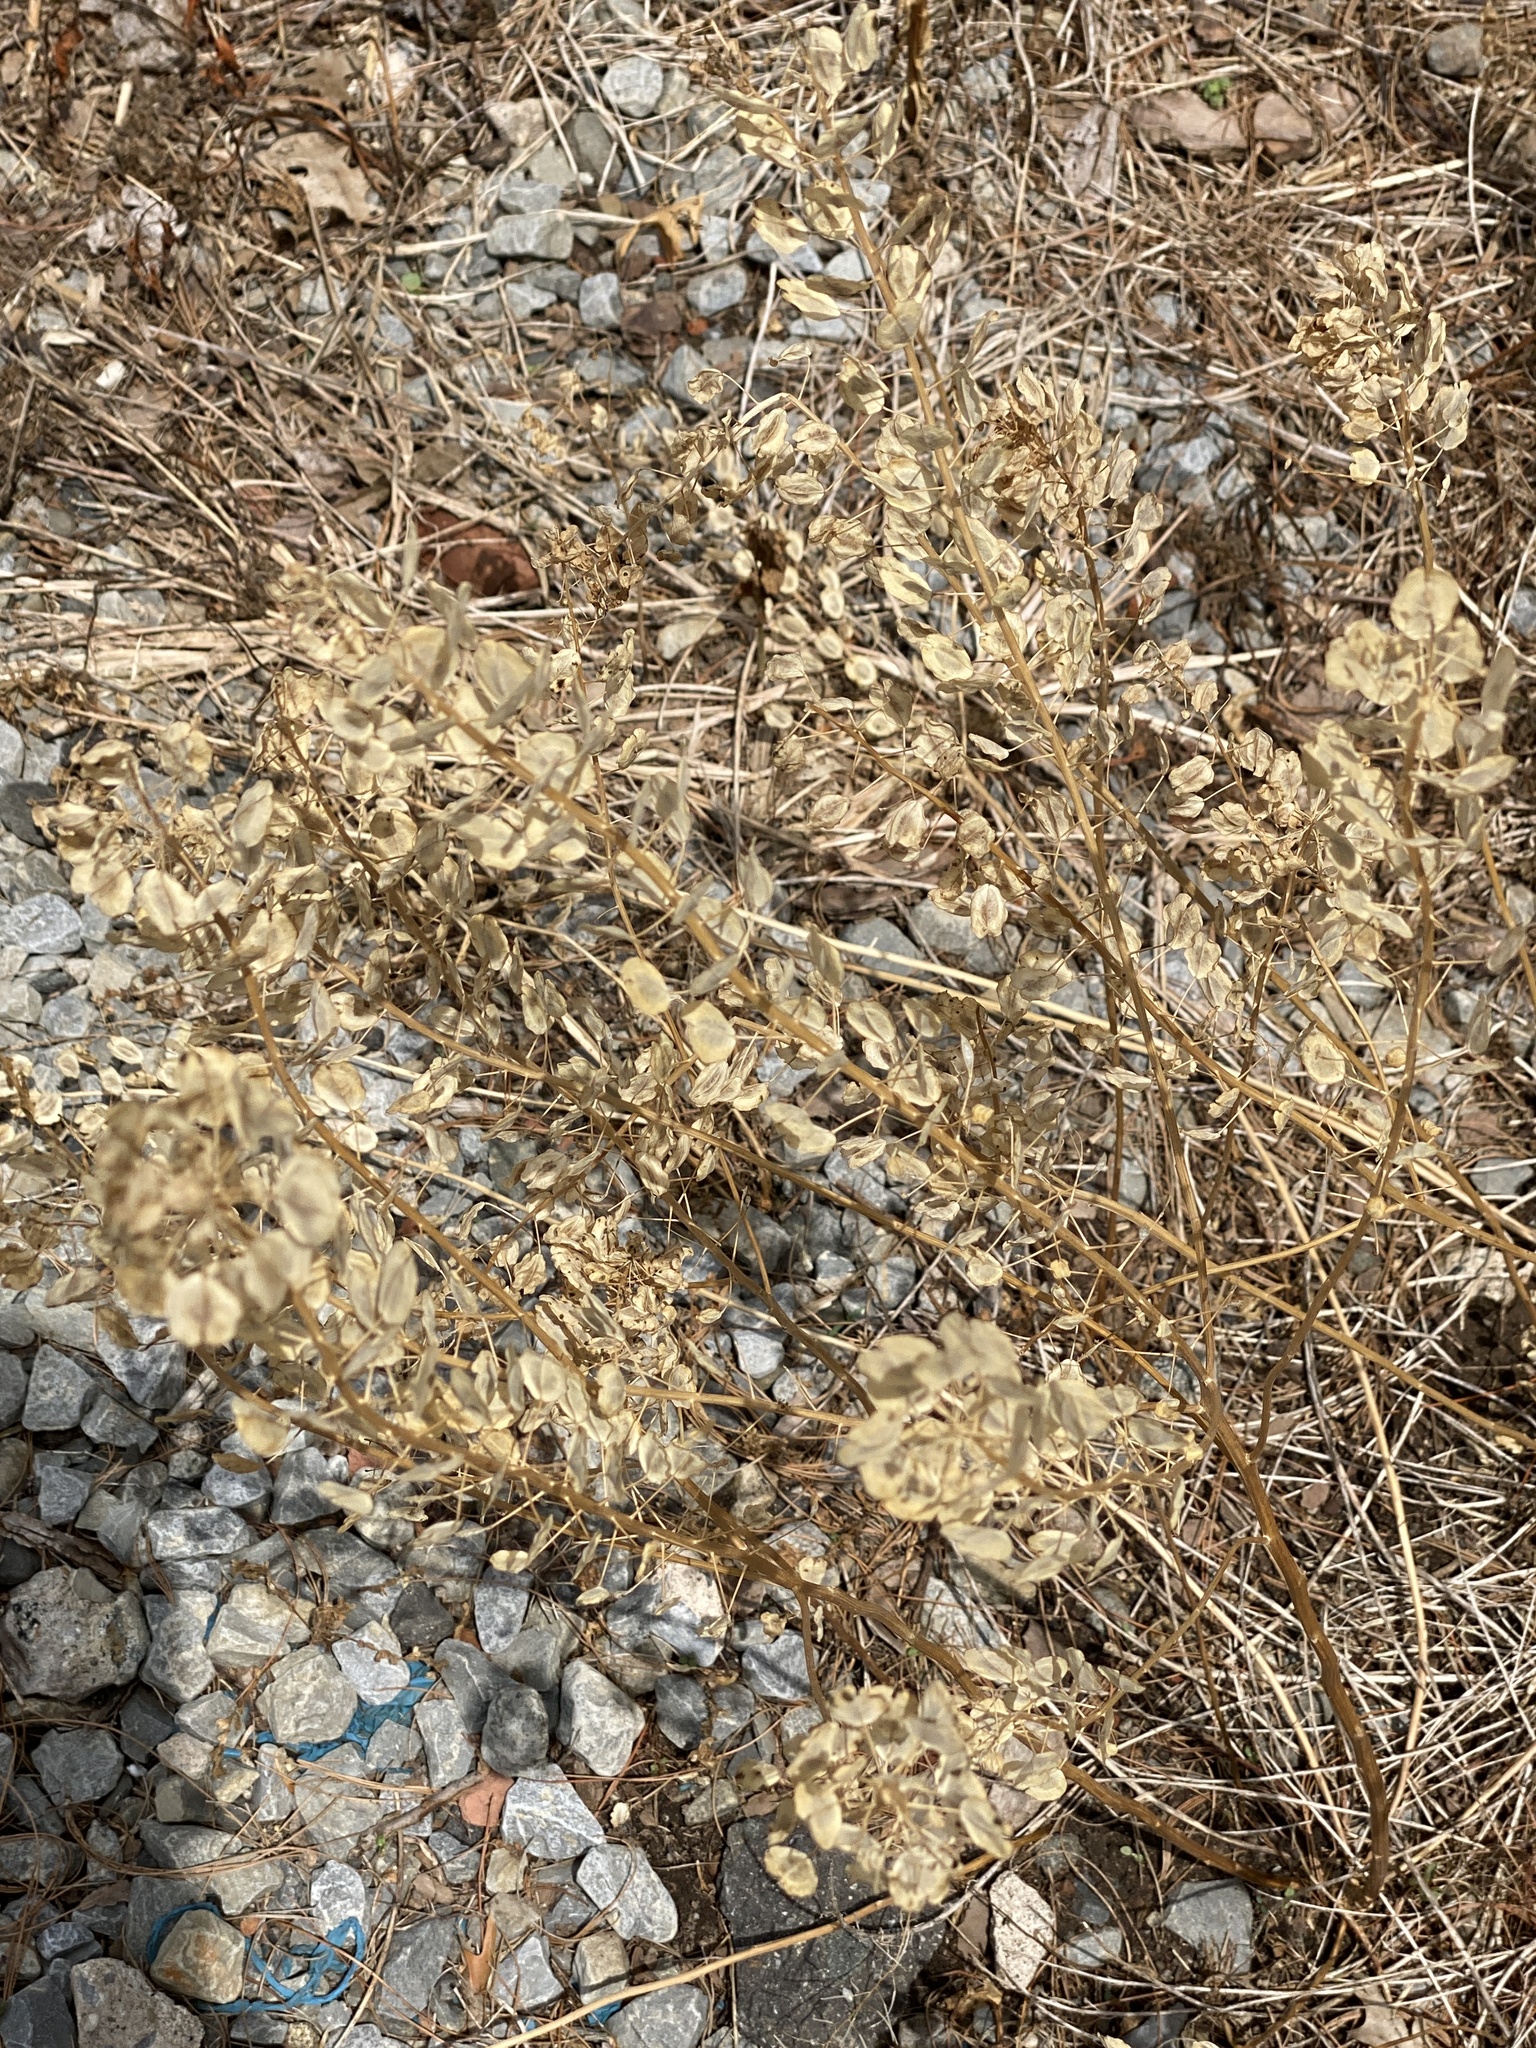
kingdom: Plantae
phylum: Tracheophyta
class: Magnoliopsida
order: Brassicales
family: Brassicaceae
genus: Thlaspi
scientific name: Thlaspi arvense
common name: Field pennycress
